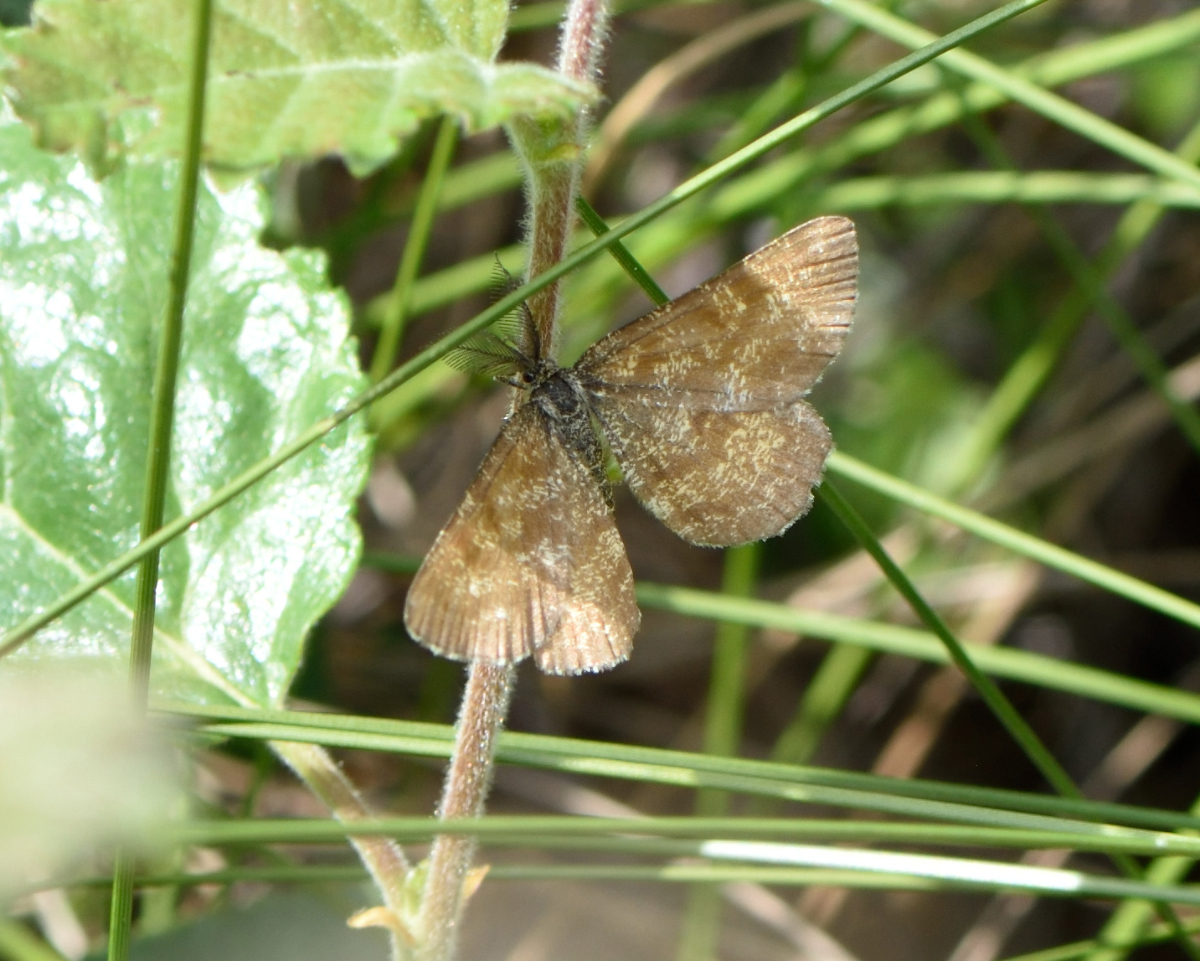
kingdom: Animalia
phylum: Arthropoda
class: Insecta
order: Lepidoptera
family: Geometridae
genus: Ematurga
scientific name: Ematurga atomaria
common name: Common heath
